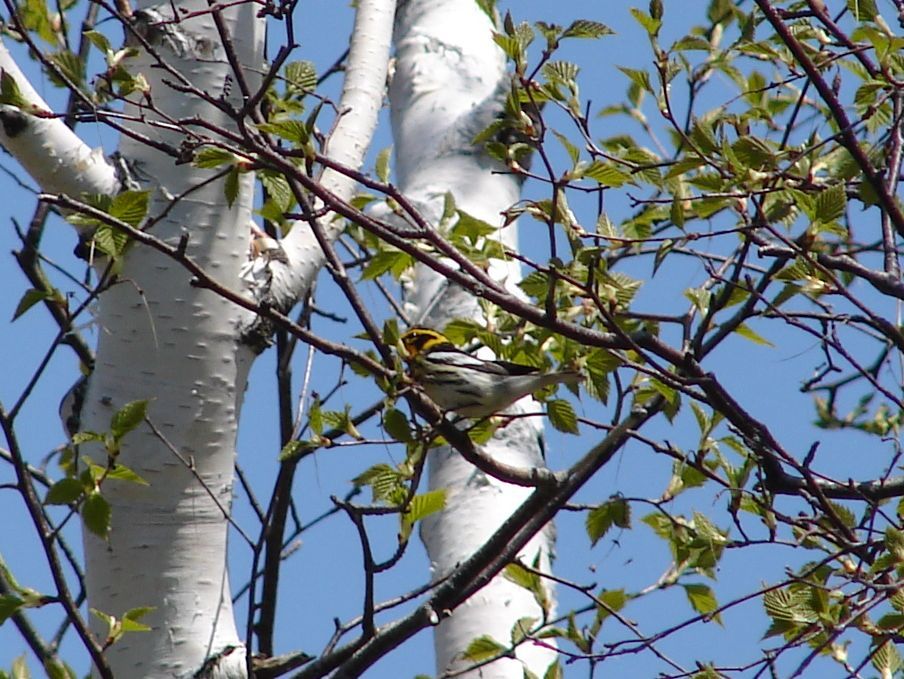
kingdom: Animalia
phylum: Chordata
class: Aves
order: Passeriformes
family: Parulidae
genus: Setophaga
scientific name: Setophaga fusca
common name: Blackburnian warbler
